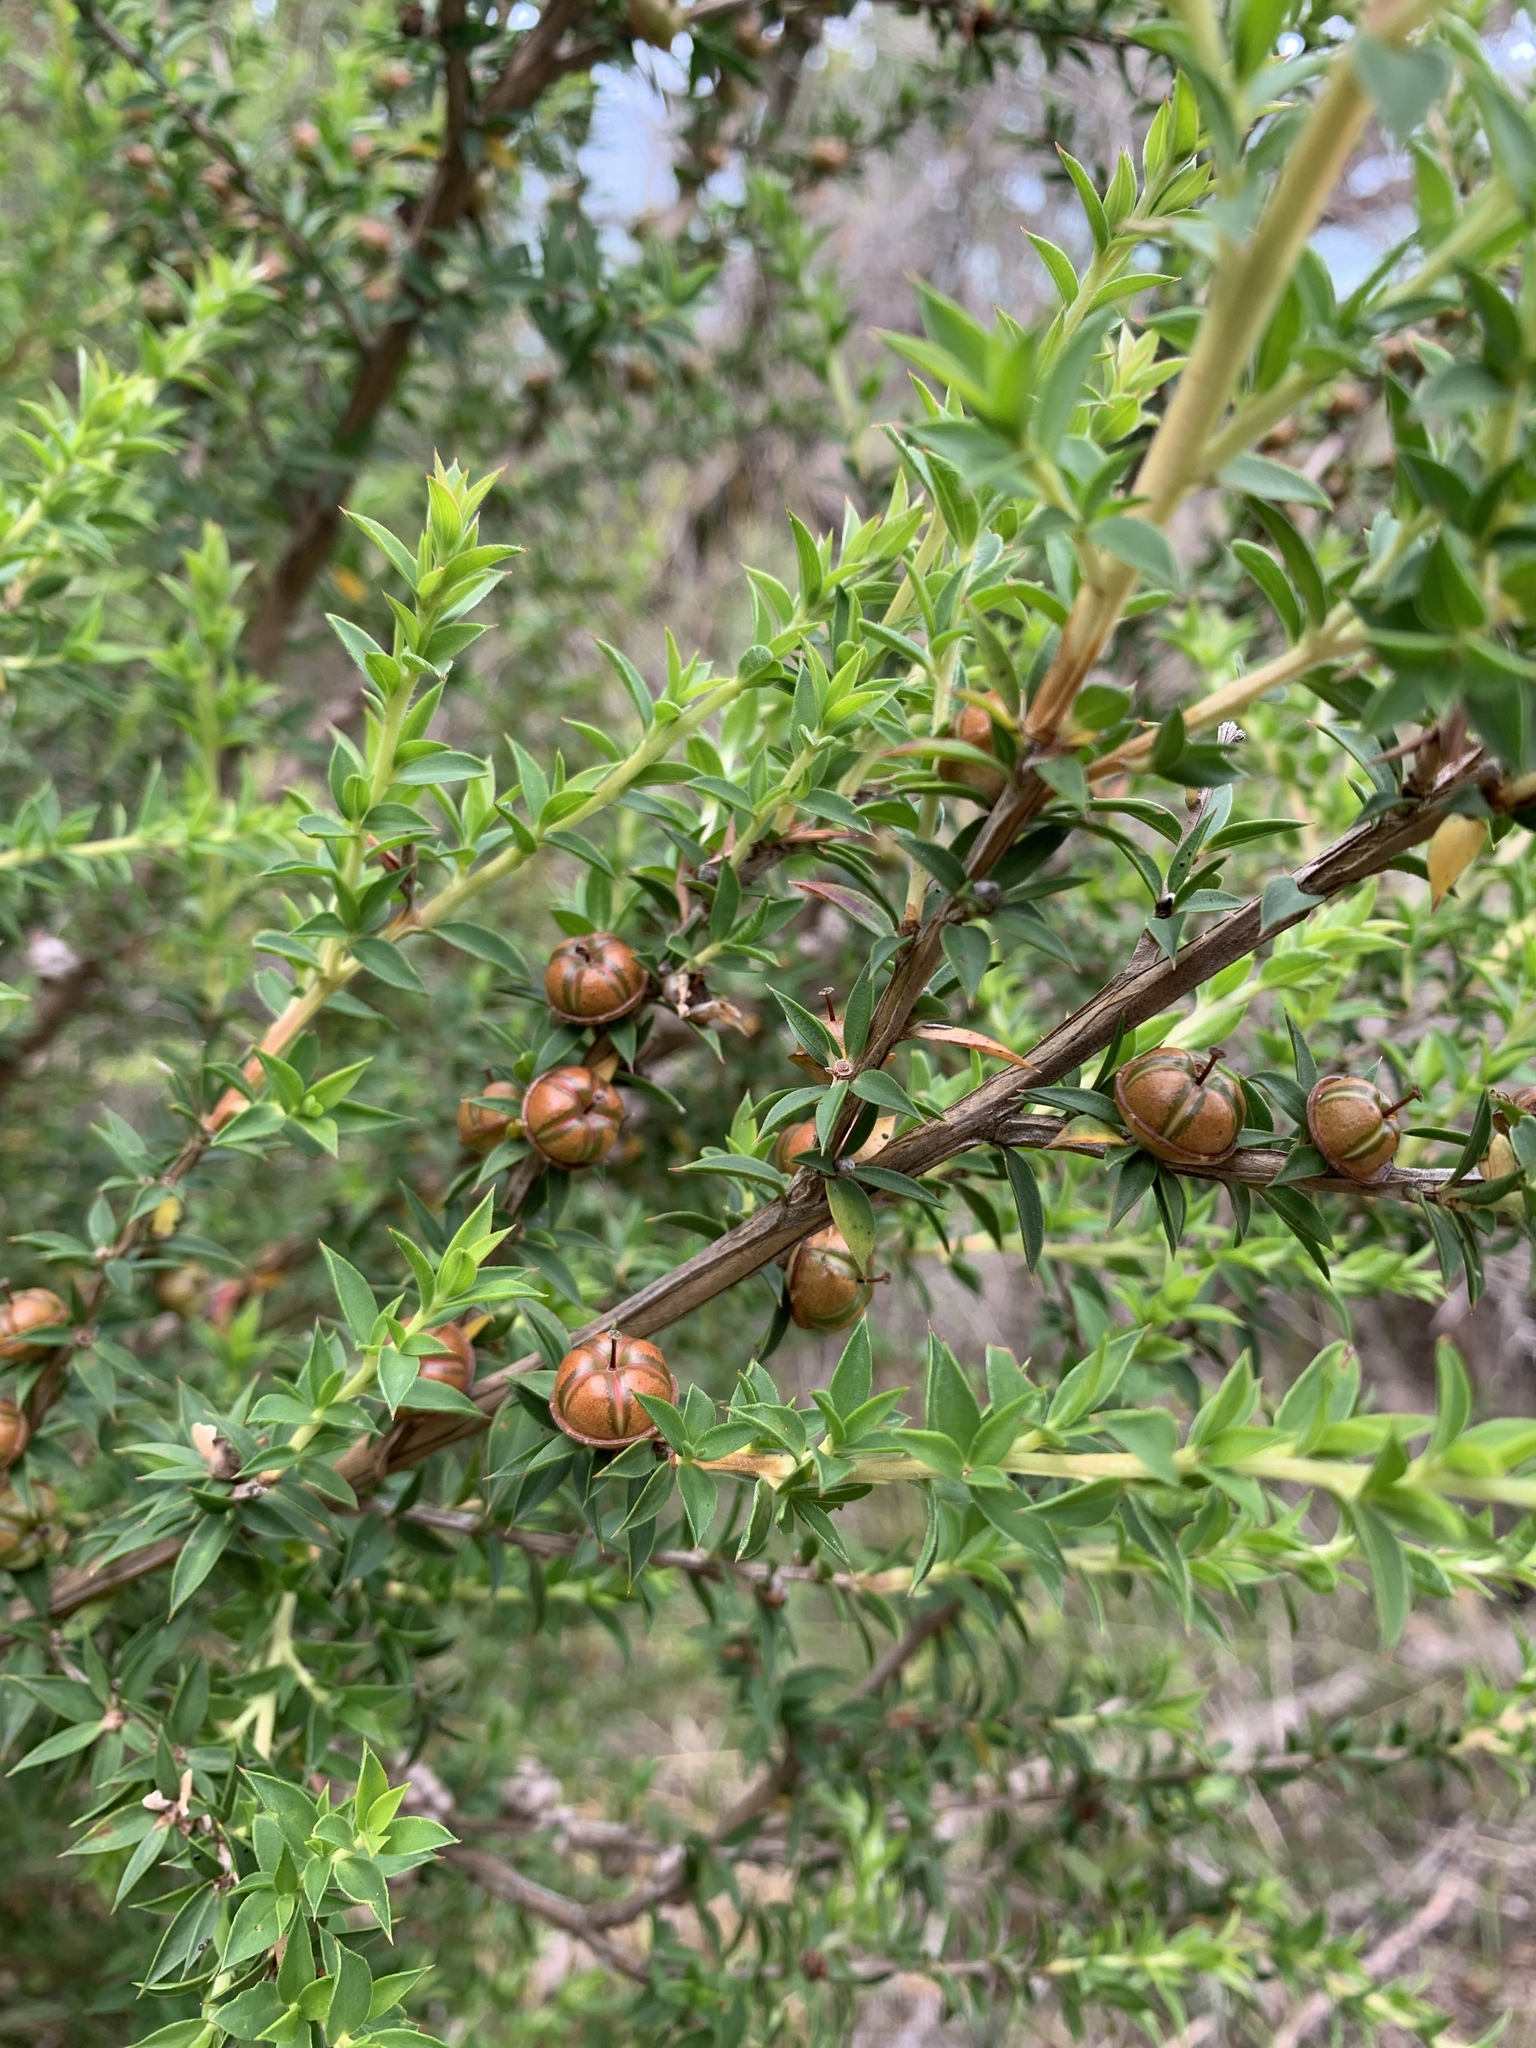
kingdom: Plantae
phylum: Tracheophyta
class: Magnoliopsida
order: Myrtales
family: Myrtaceae
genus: Leptospermum
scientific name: Leptospermum continentale
